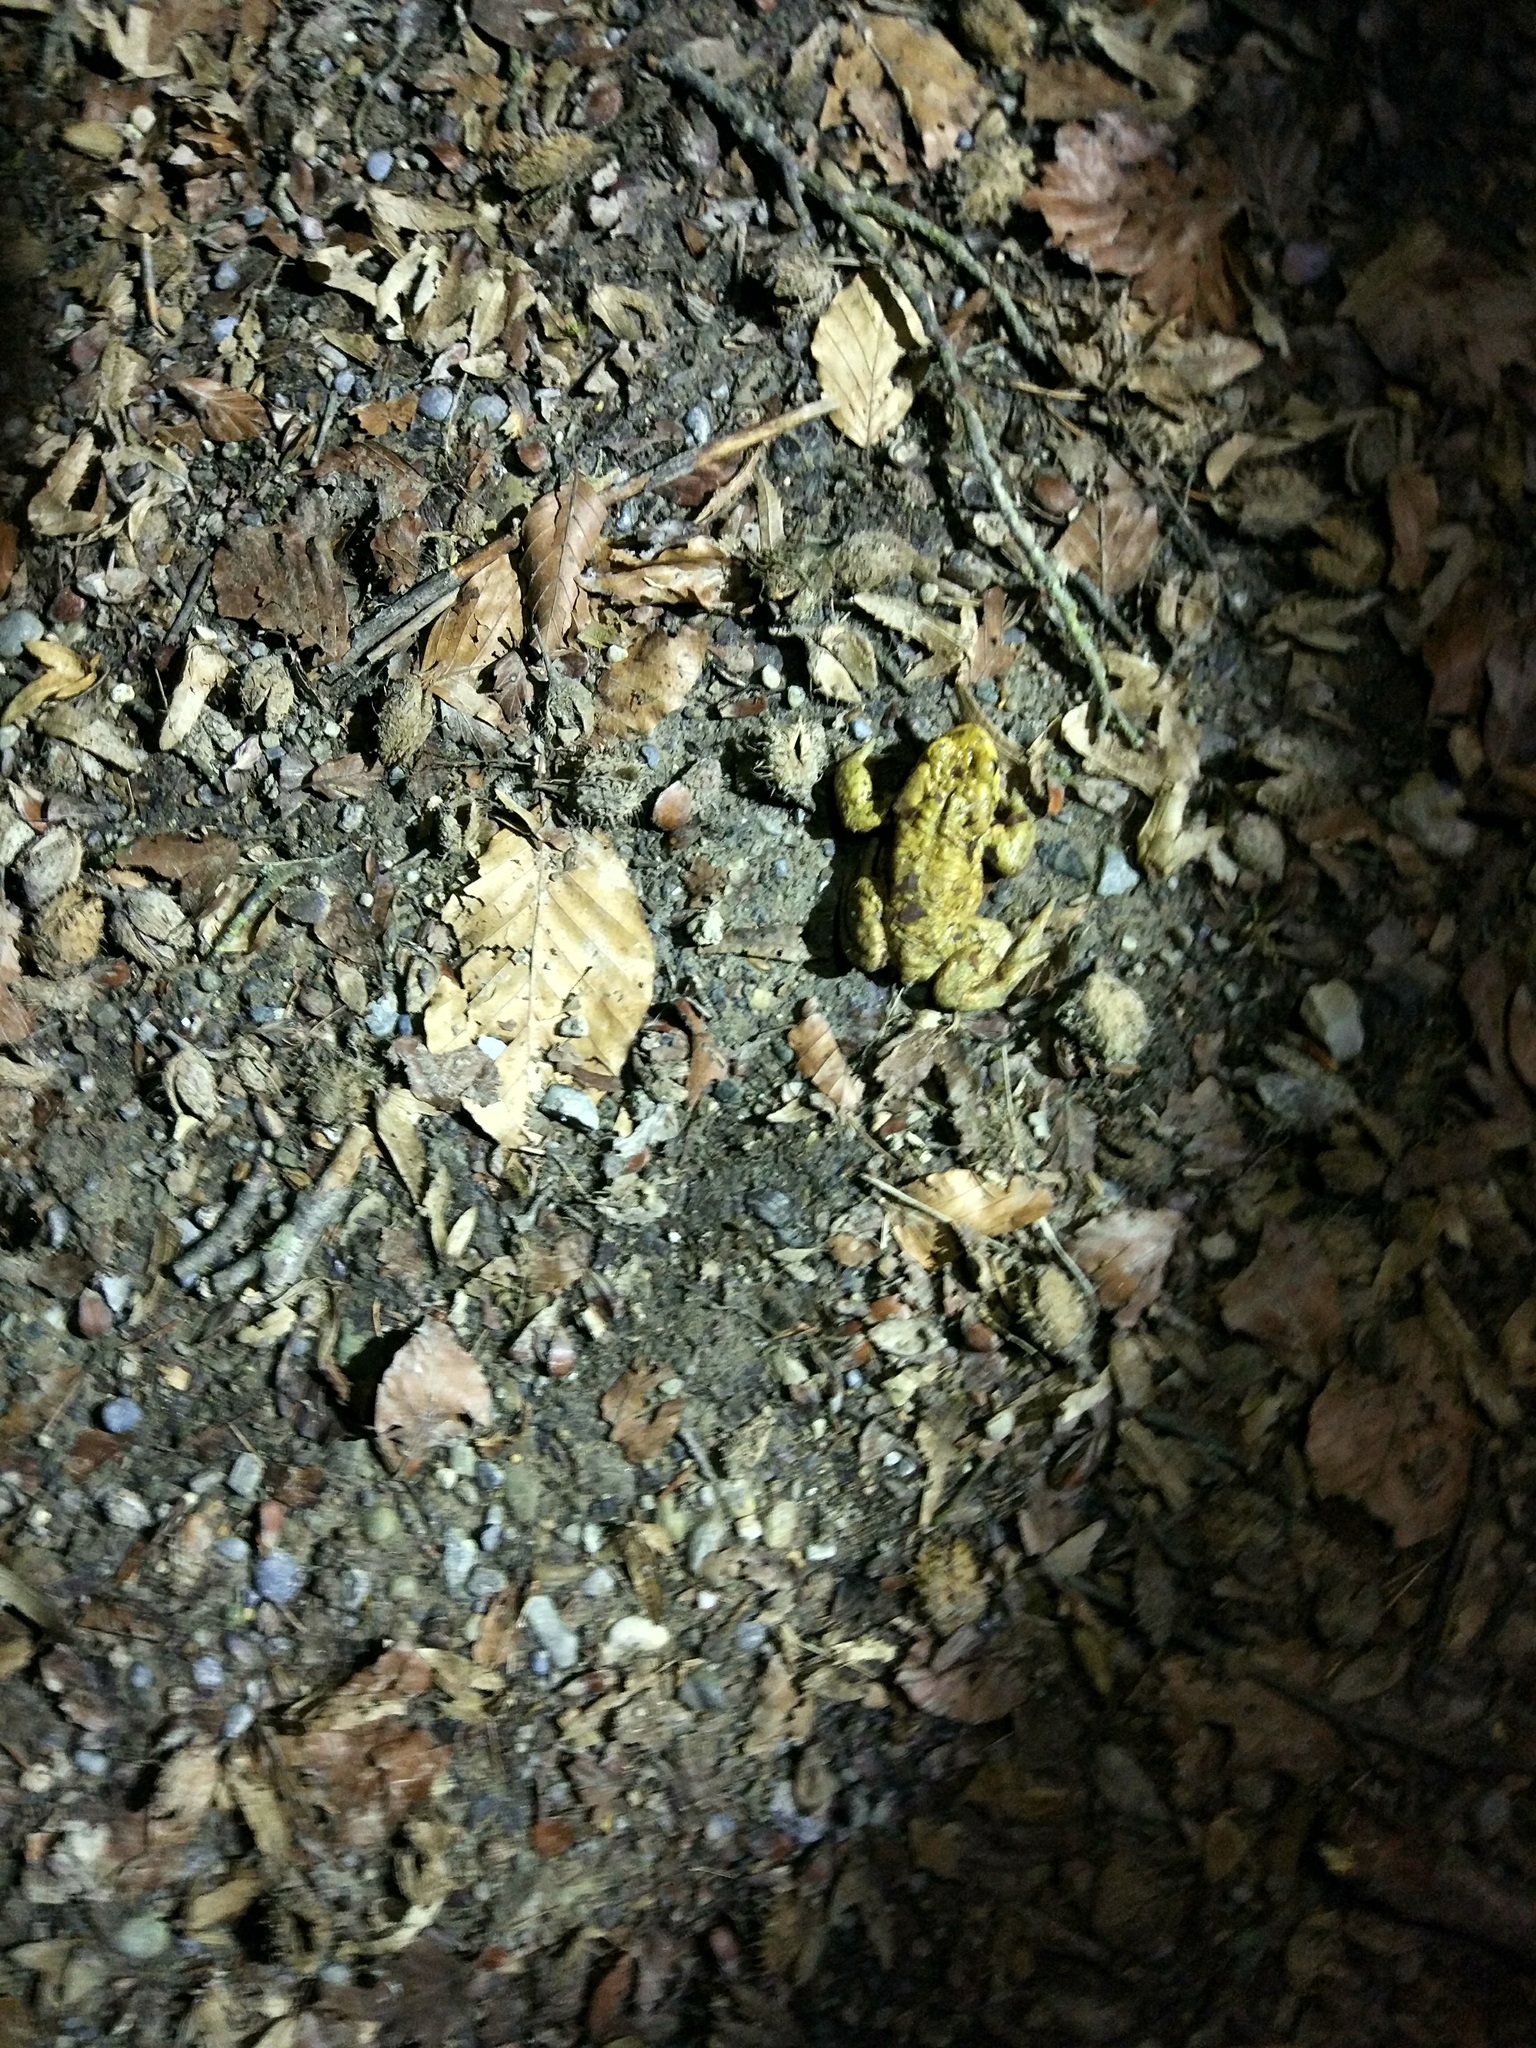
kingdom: Animalia
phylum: Chordata
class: Amphibia
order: Anura
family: Bufonidae
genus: Bufo
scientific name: Bufo bufo
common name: Common toad
